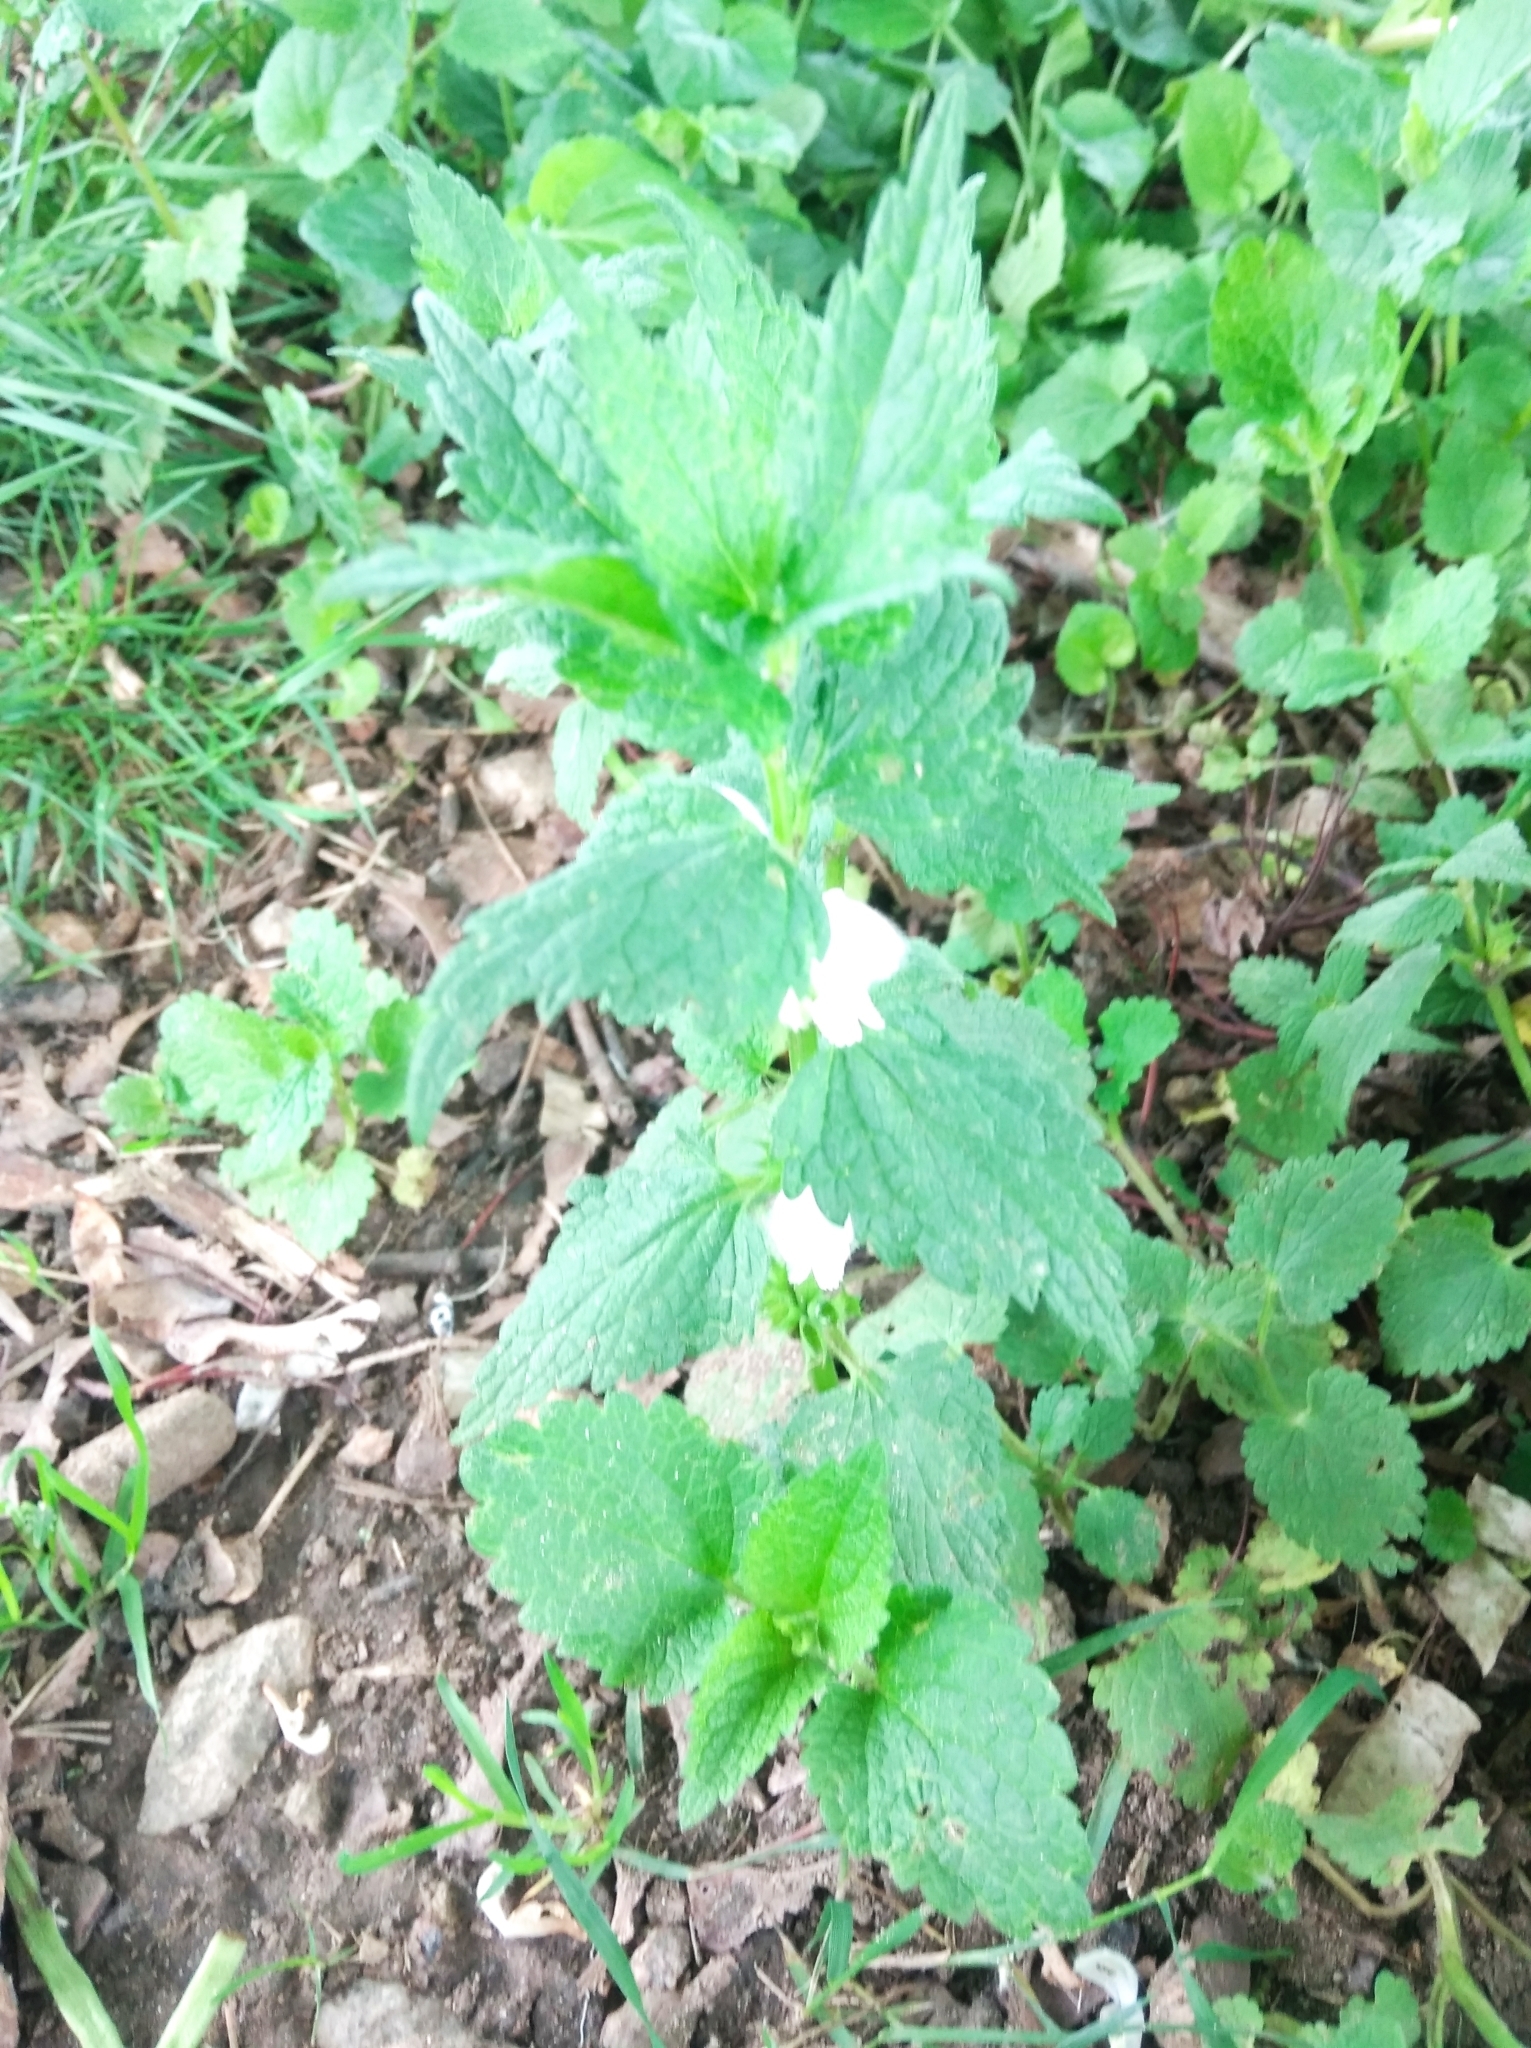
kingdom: Plantae
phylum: Tracheophyta
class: Magnoliopsida
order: Lamiales
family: Lamiaceae
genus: Lamium
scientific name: Lamium album
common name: White dead-nettle
